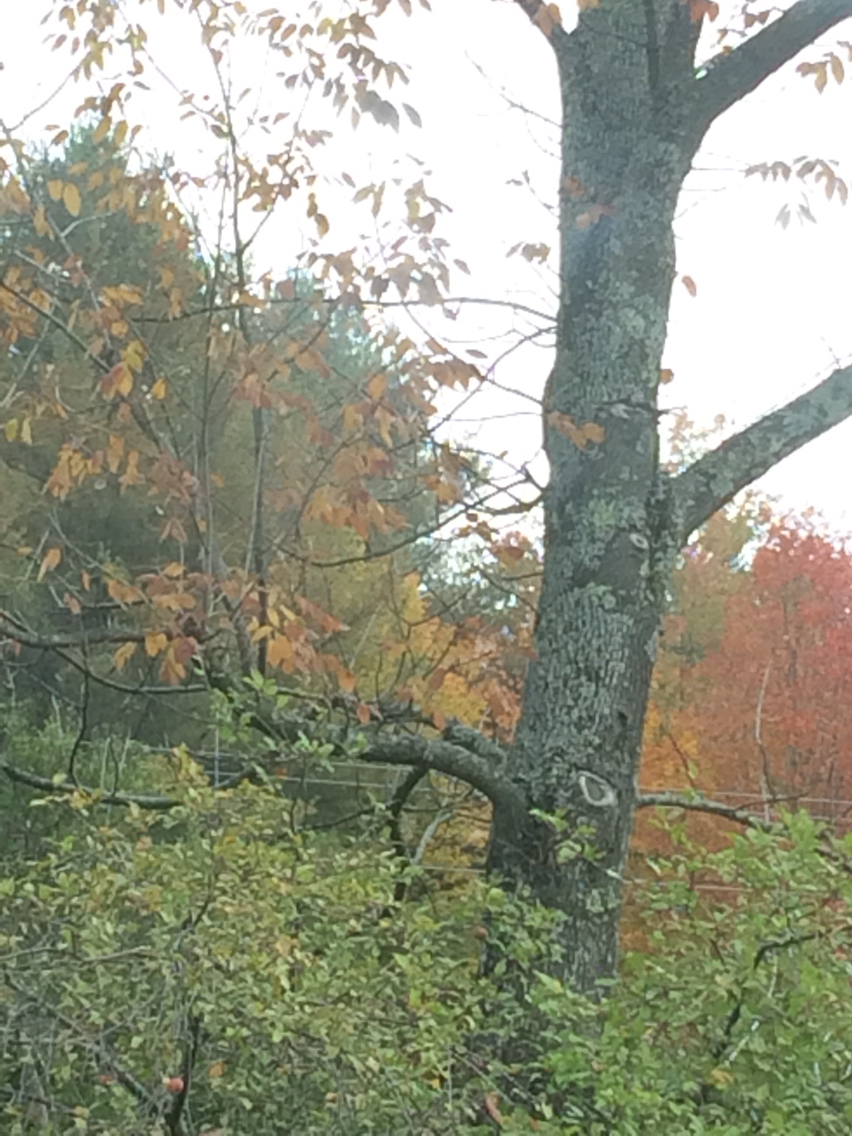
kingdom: Plantae
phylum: Tracheophyta
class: Magnoliopsida
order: Lamiales
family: Oleaceae
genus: Fraxinus
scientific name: Fraxinus americana
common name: White ash
